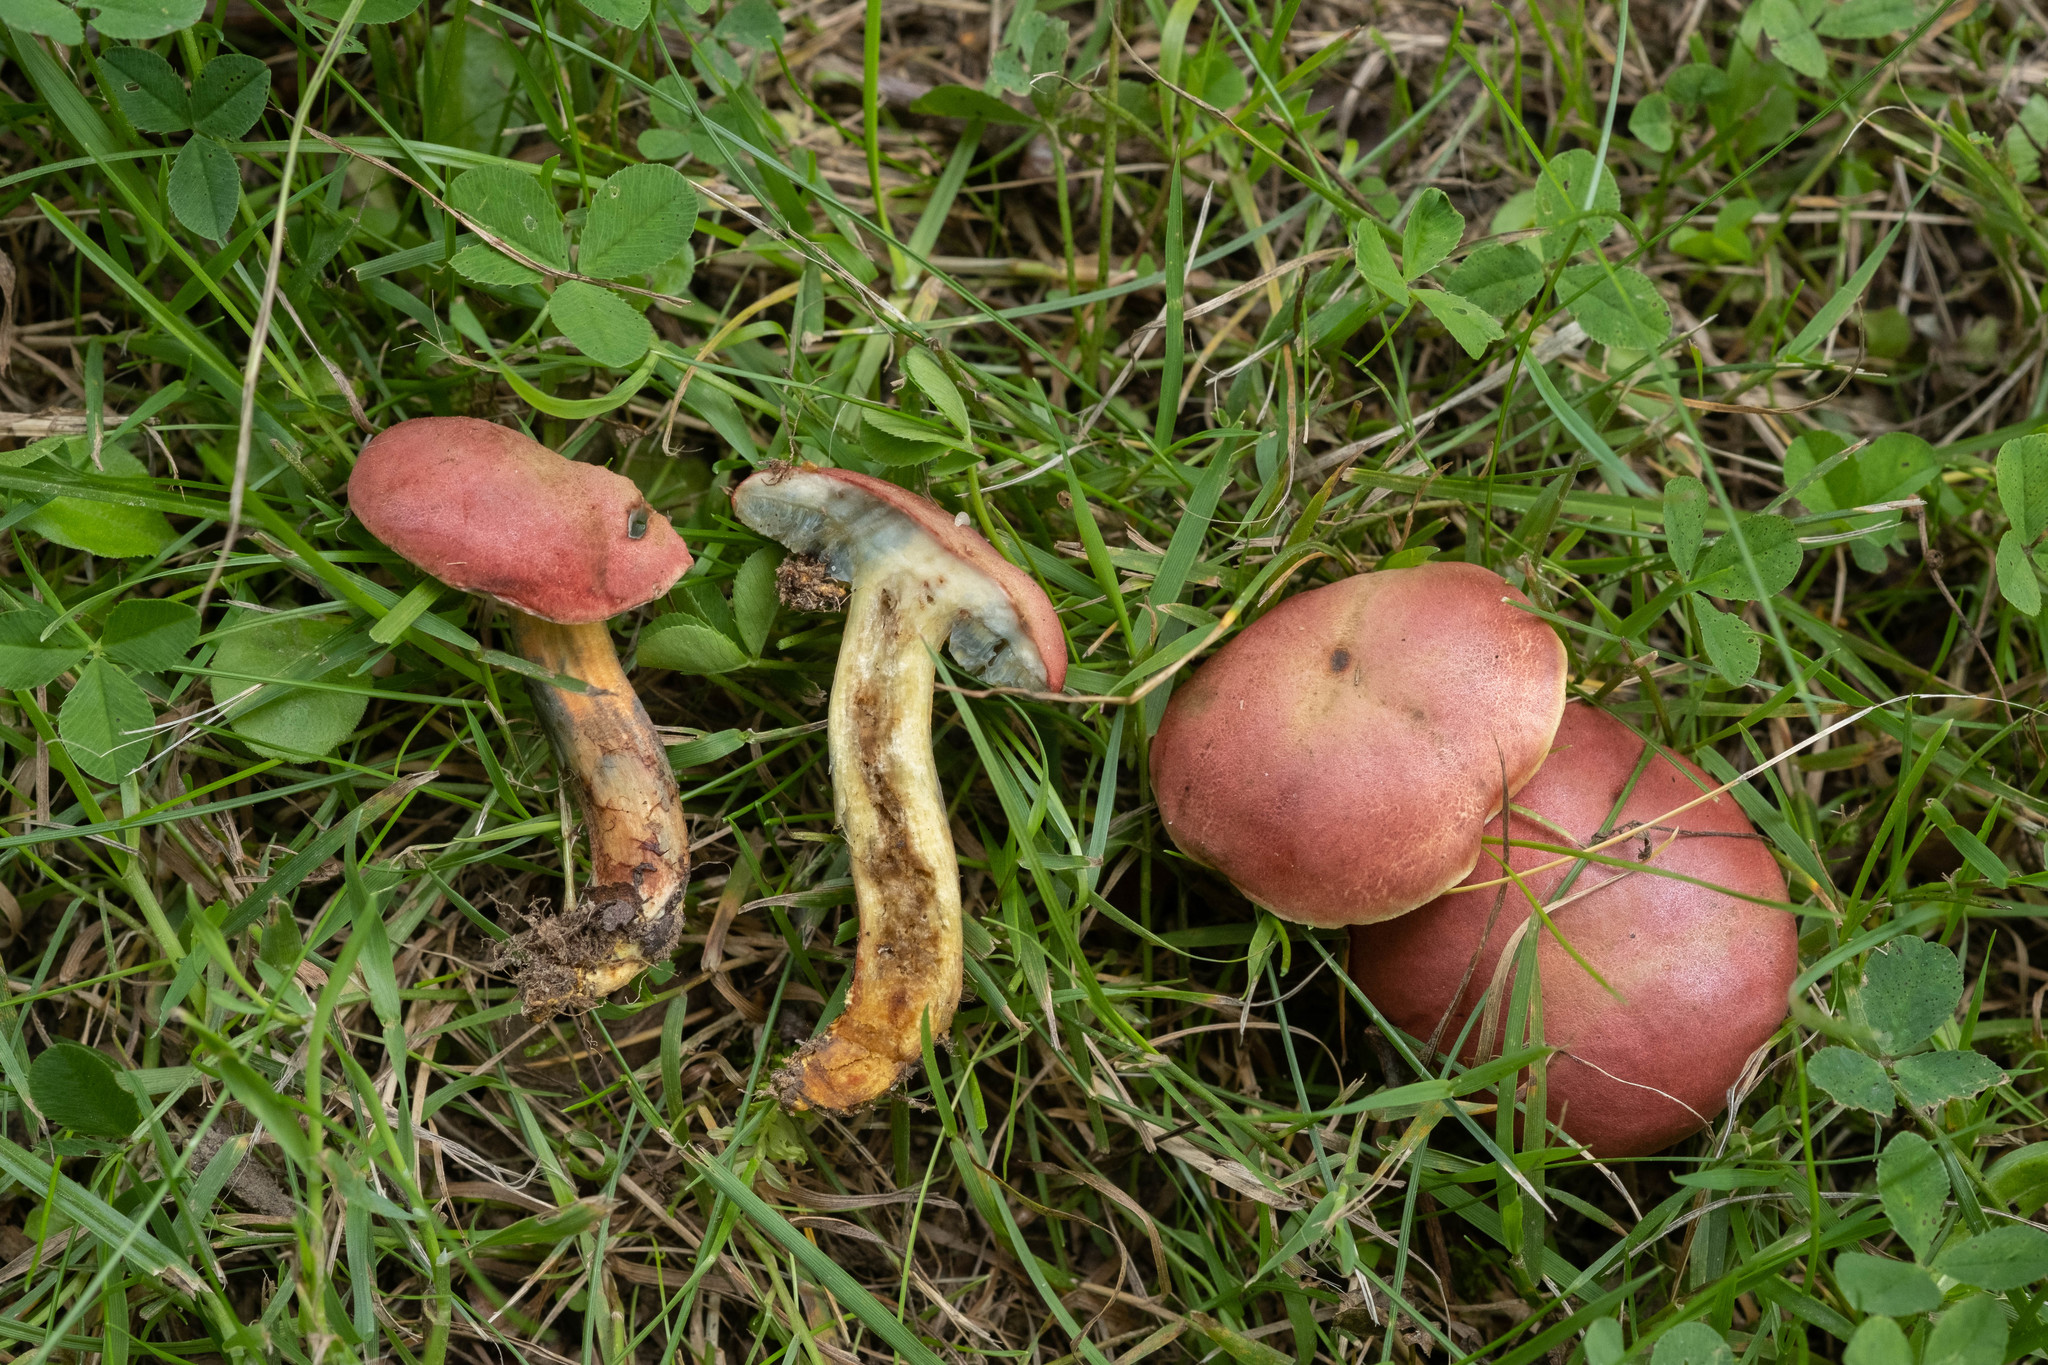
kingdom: Fungi
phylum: Basidiomycota
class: Agaricomycetes
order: Boletales
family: Boletaceae
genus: Hortiboletus
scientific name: Hortiboletus rubellus
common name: Ruby bolete
